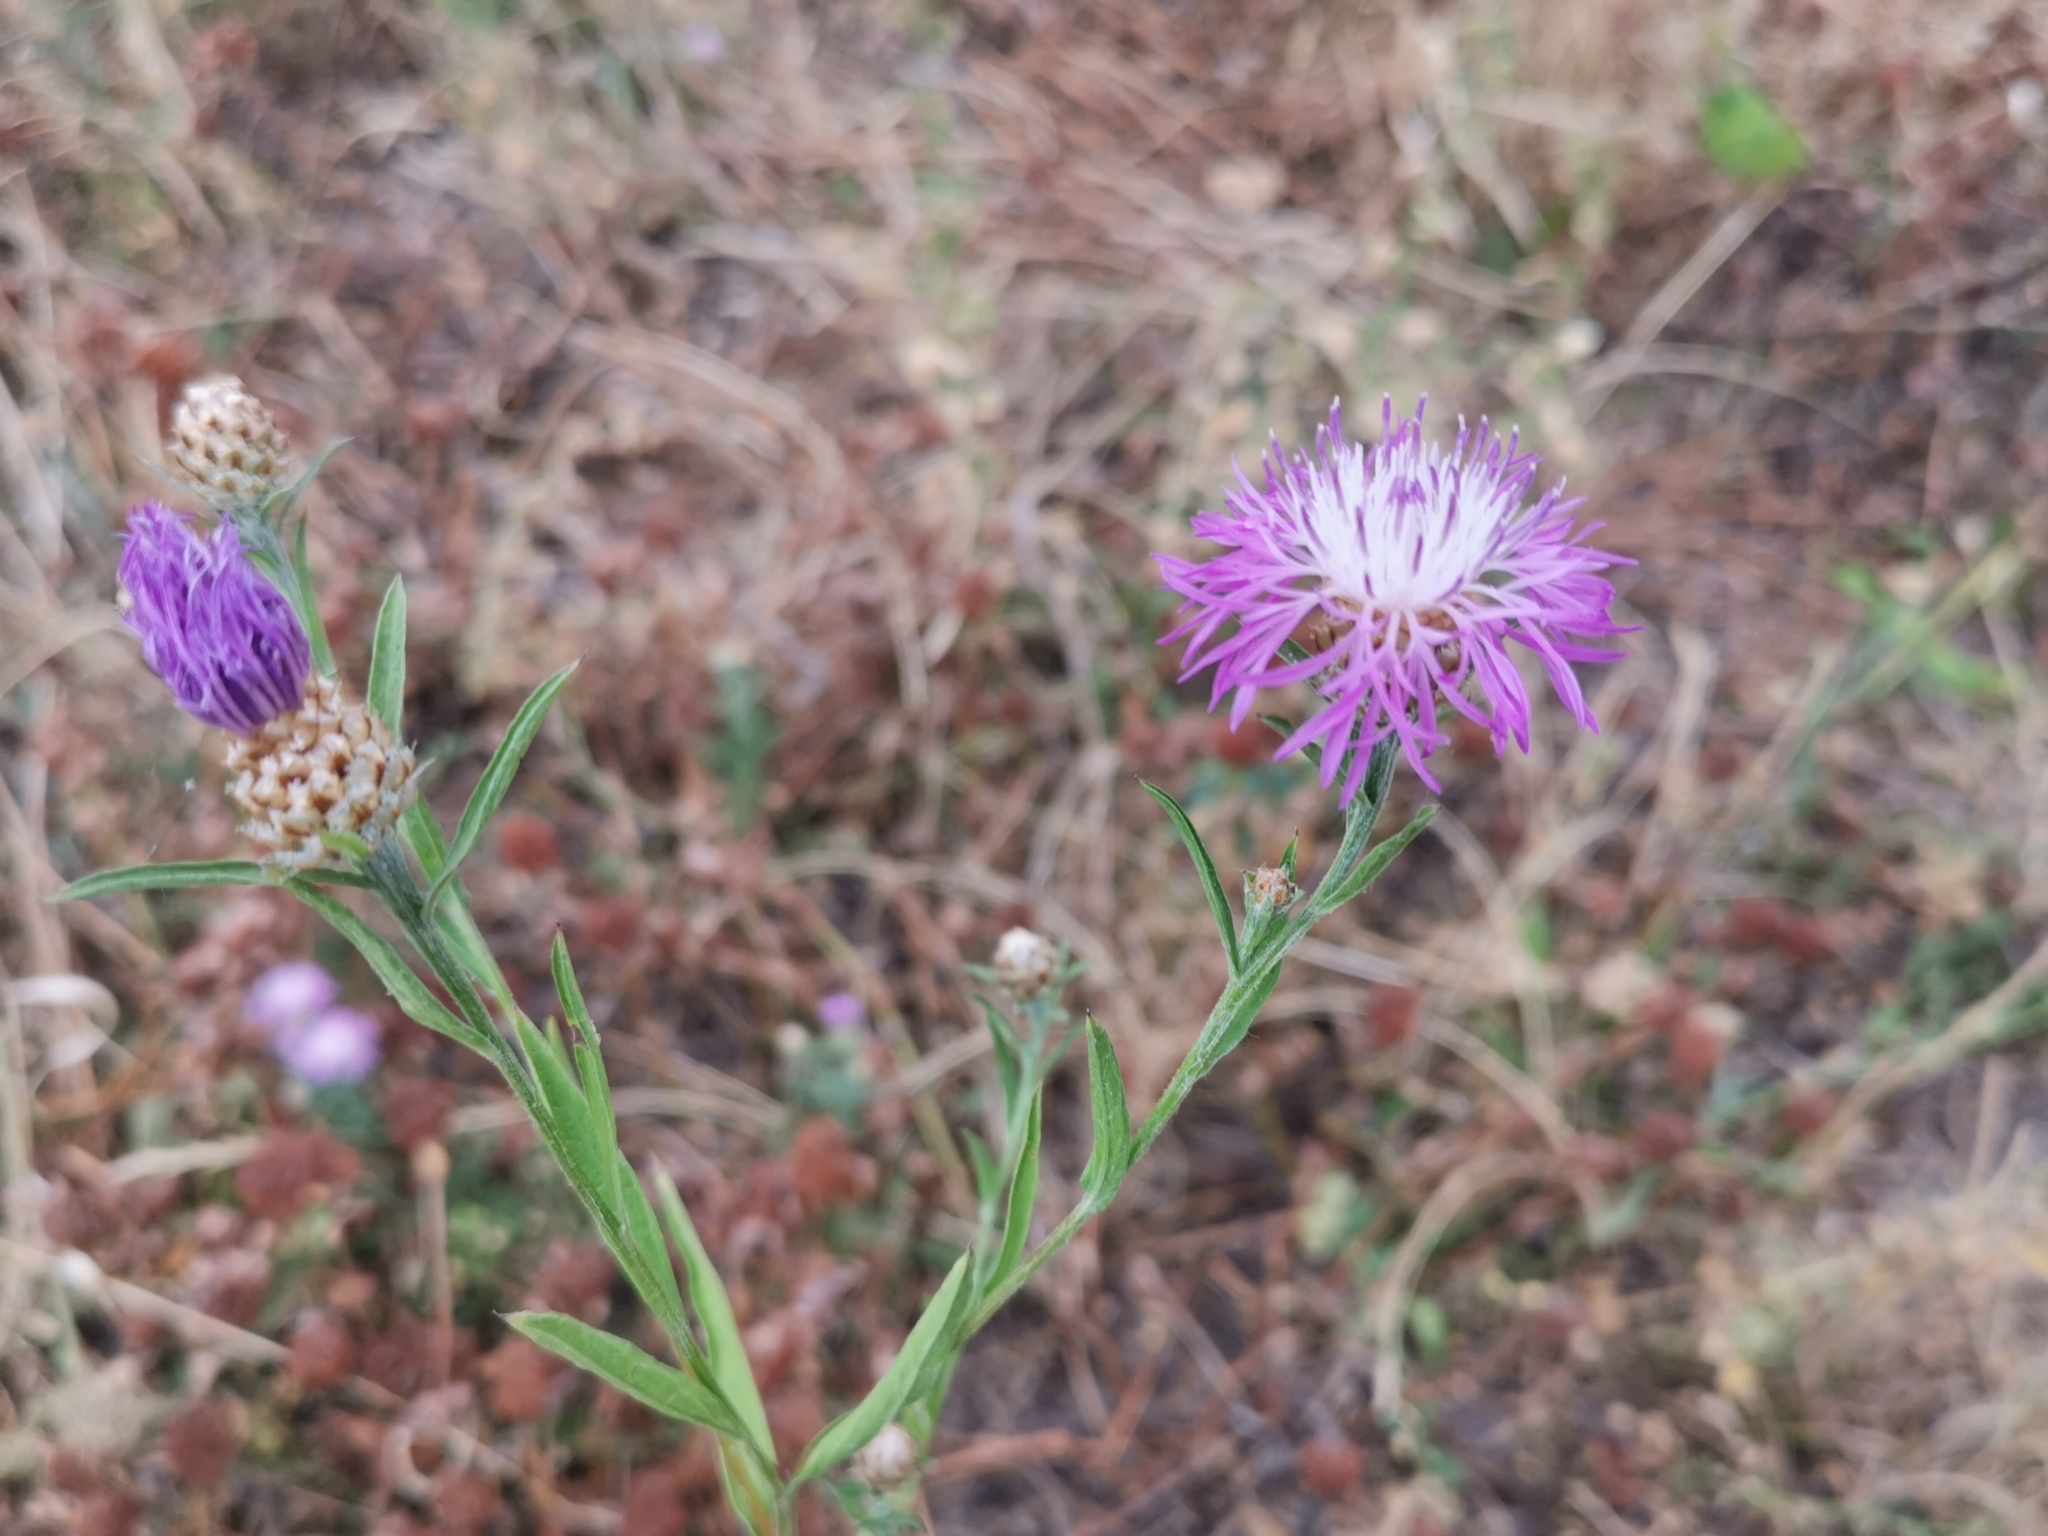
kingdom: Plantae
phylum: Tracheophyta
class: Magnoliopsida
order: Asterales
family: Asteraceae
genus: Centaurea
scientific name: Centaurea jacea
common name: Brown knapweed
